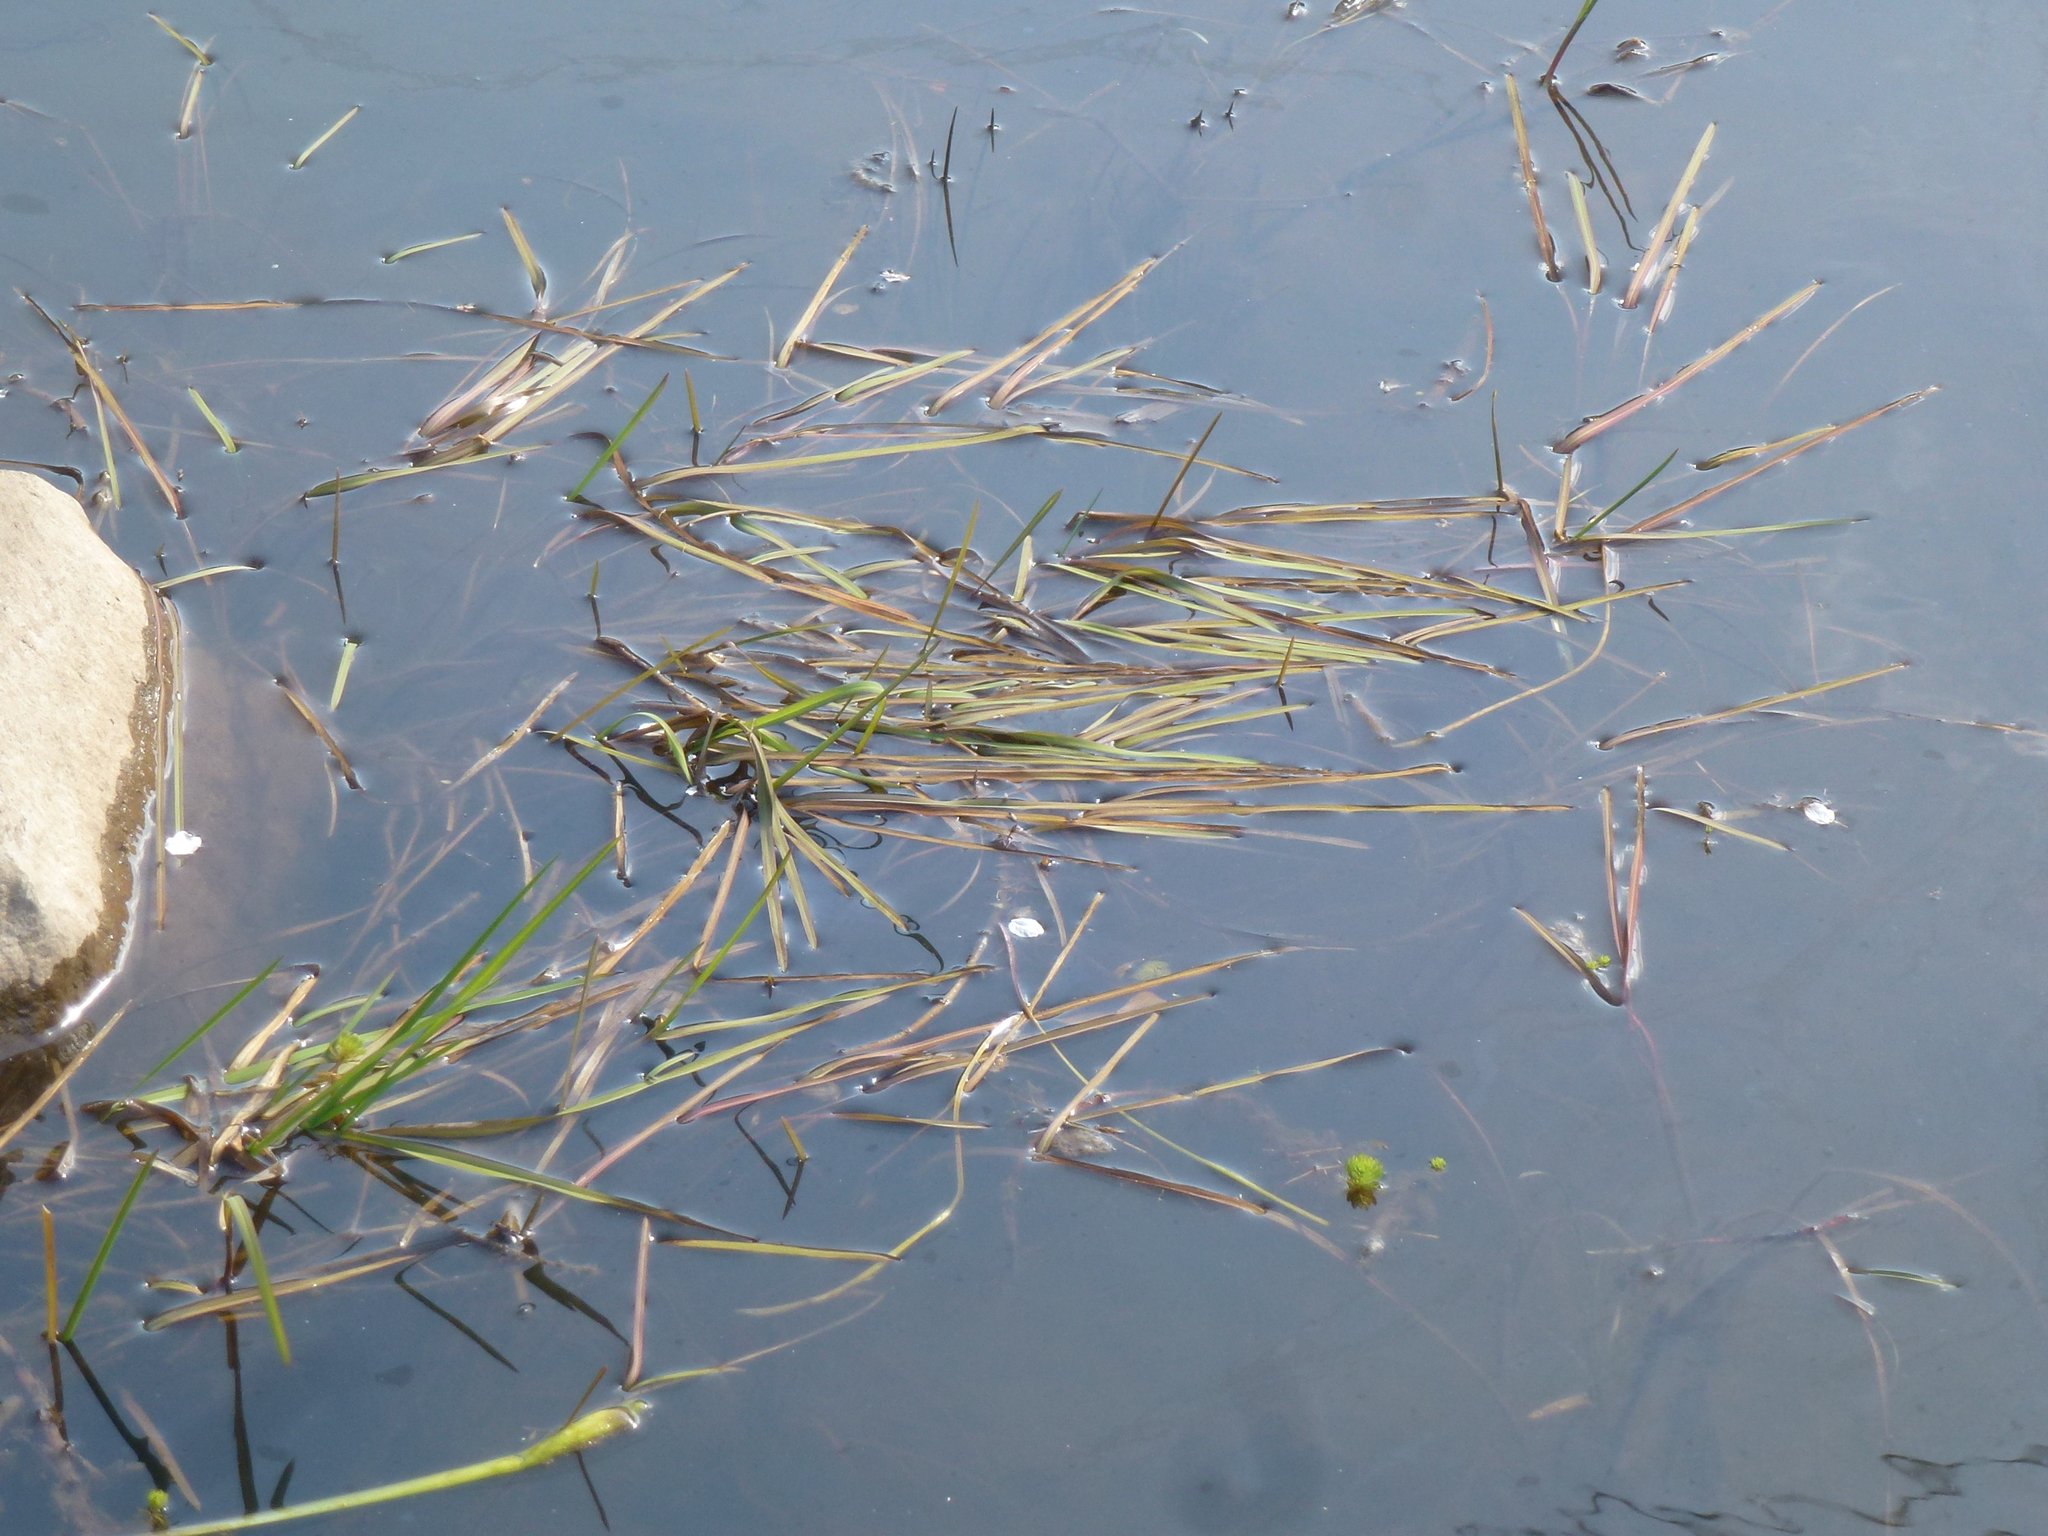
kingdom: Plantae
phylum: Tracheophyta
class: Liliopsida
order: Poales
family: Poaceae
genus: Glyceria
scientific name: Glyceria fluitans
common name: Floating sweet-grass
